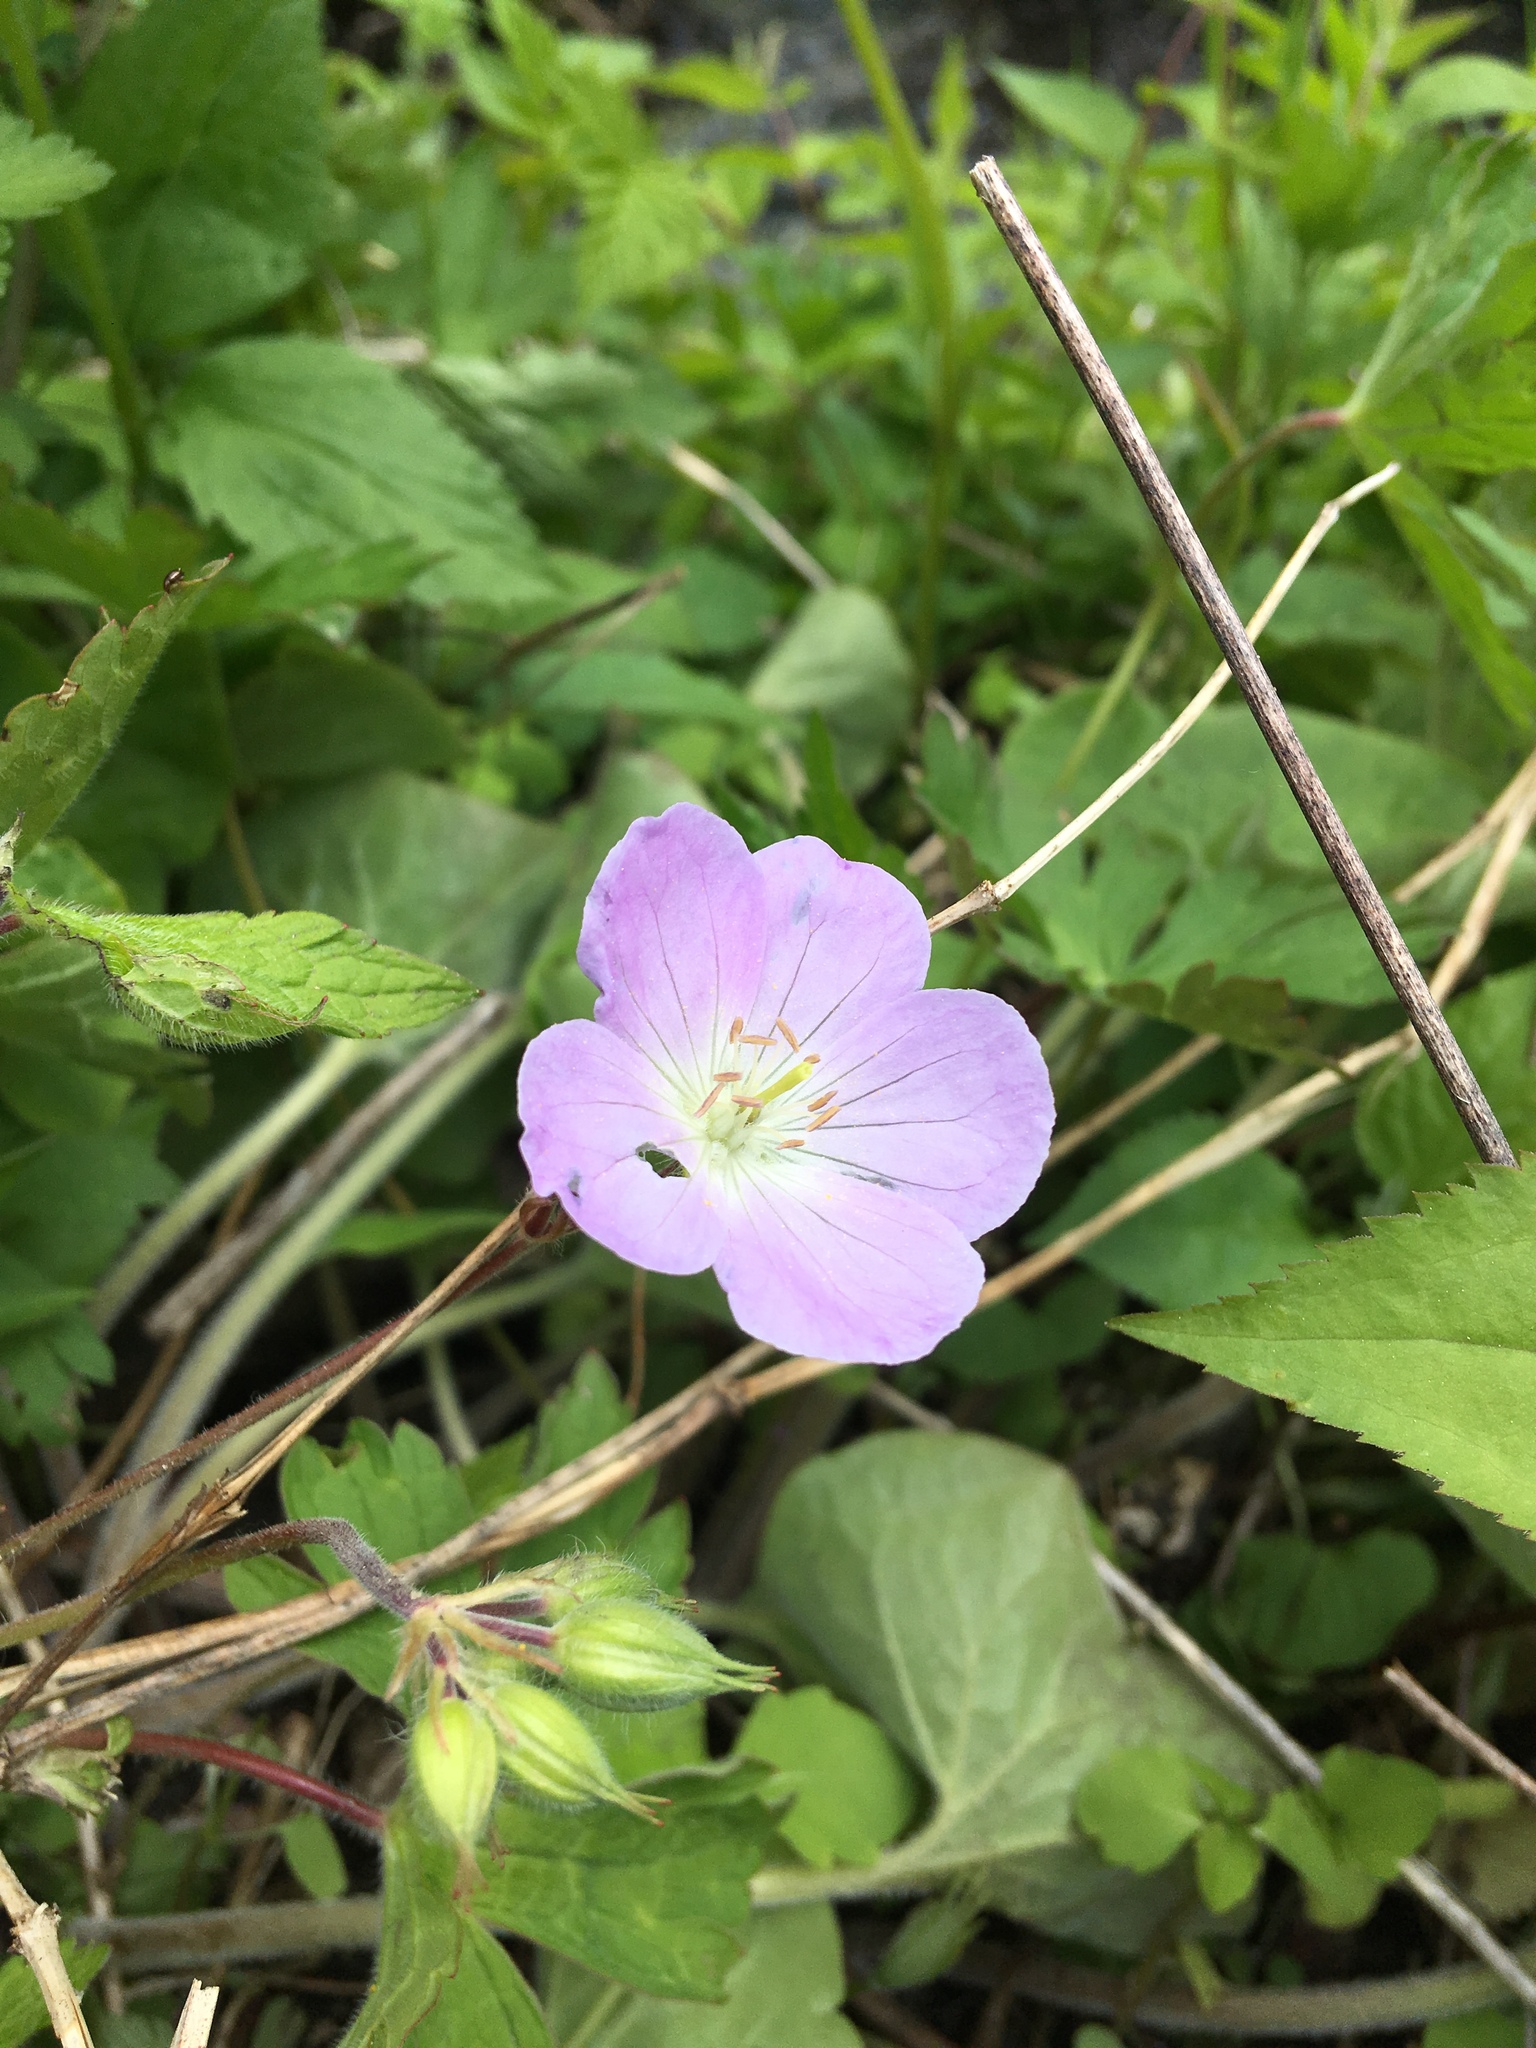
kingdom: Plantae
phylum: Tracheophyta
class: Magnoliopsida
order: Geraniales
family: Geraniaceae
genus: Geranium
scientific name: Geranium maculatum
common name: Spotted geranium
